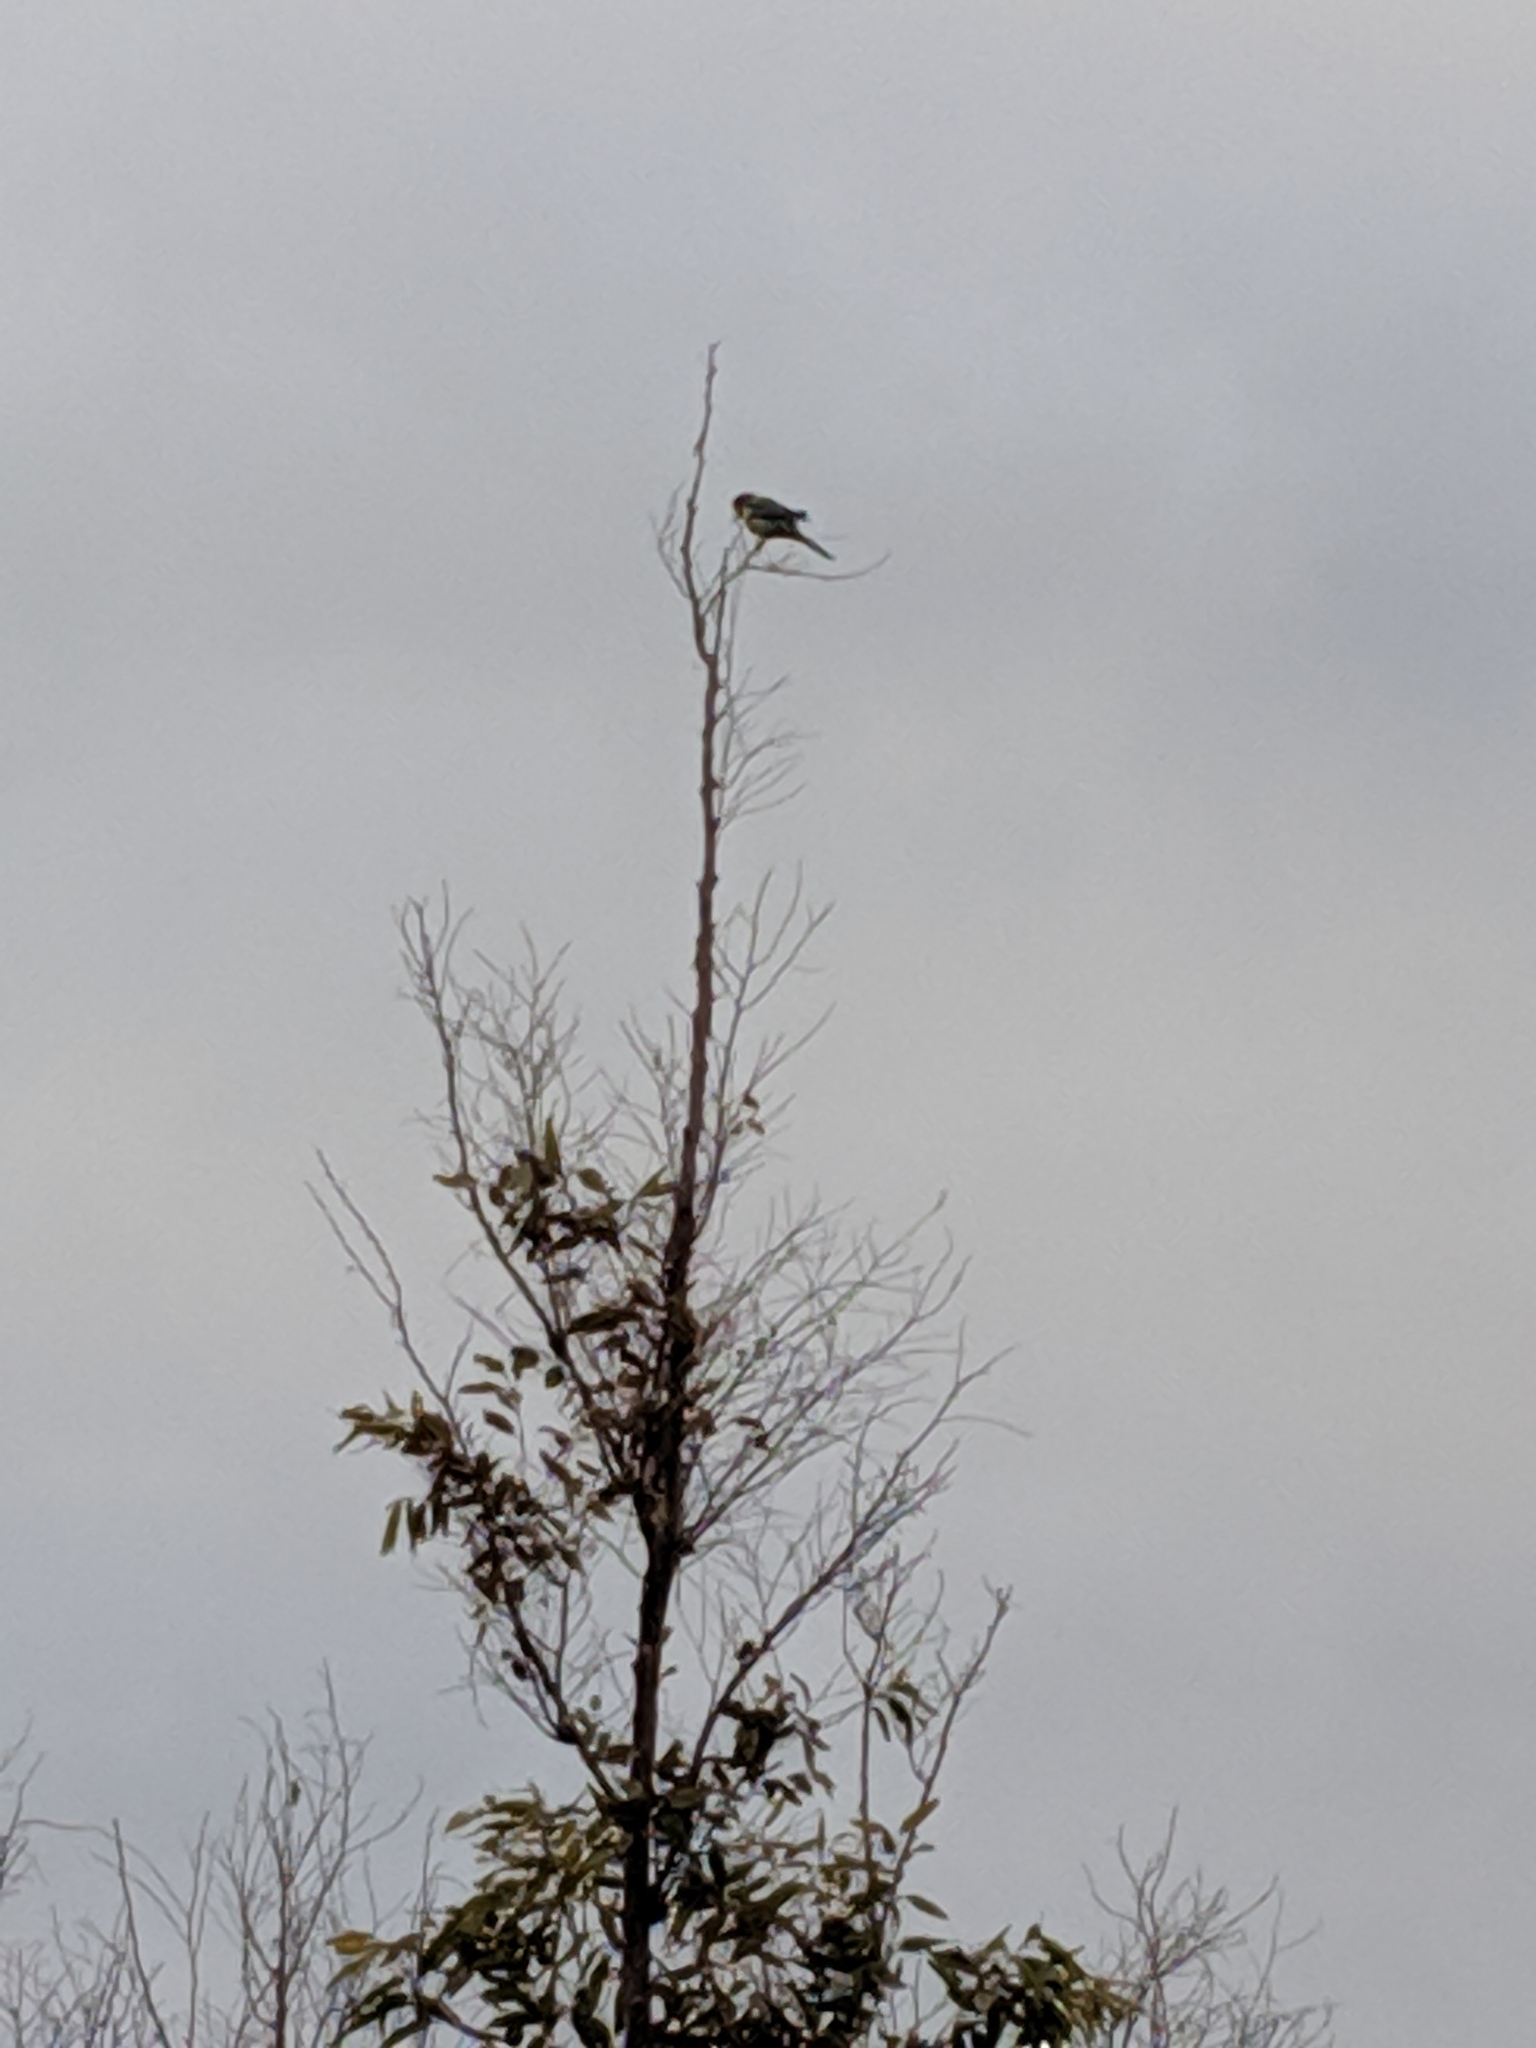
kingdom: Animalia
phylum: Chordata
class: Aves
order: Psittaciformes
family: Psittacidae
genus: Platycercus
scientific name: Platycercus eximius
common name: Eastern rosella
